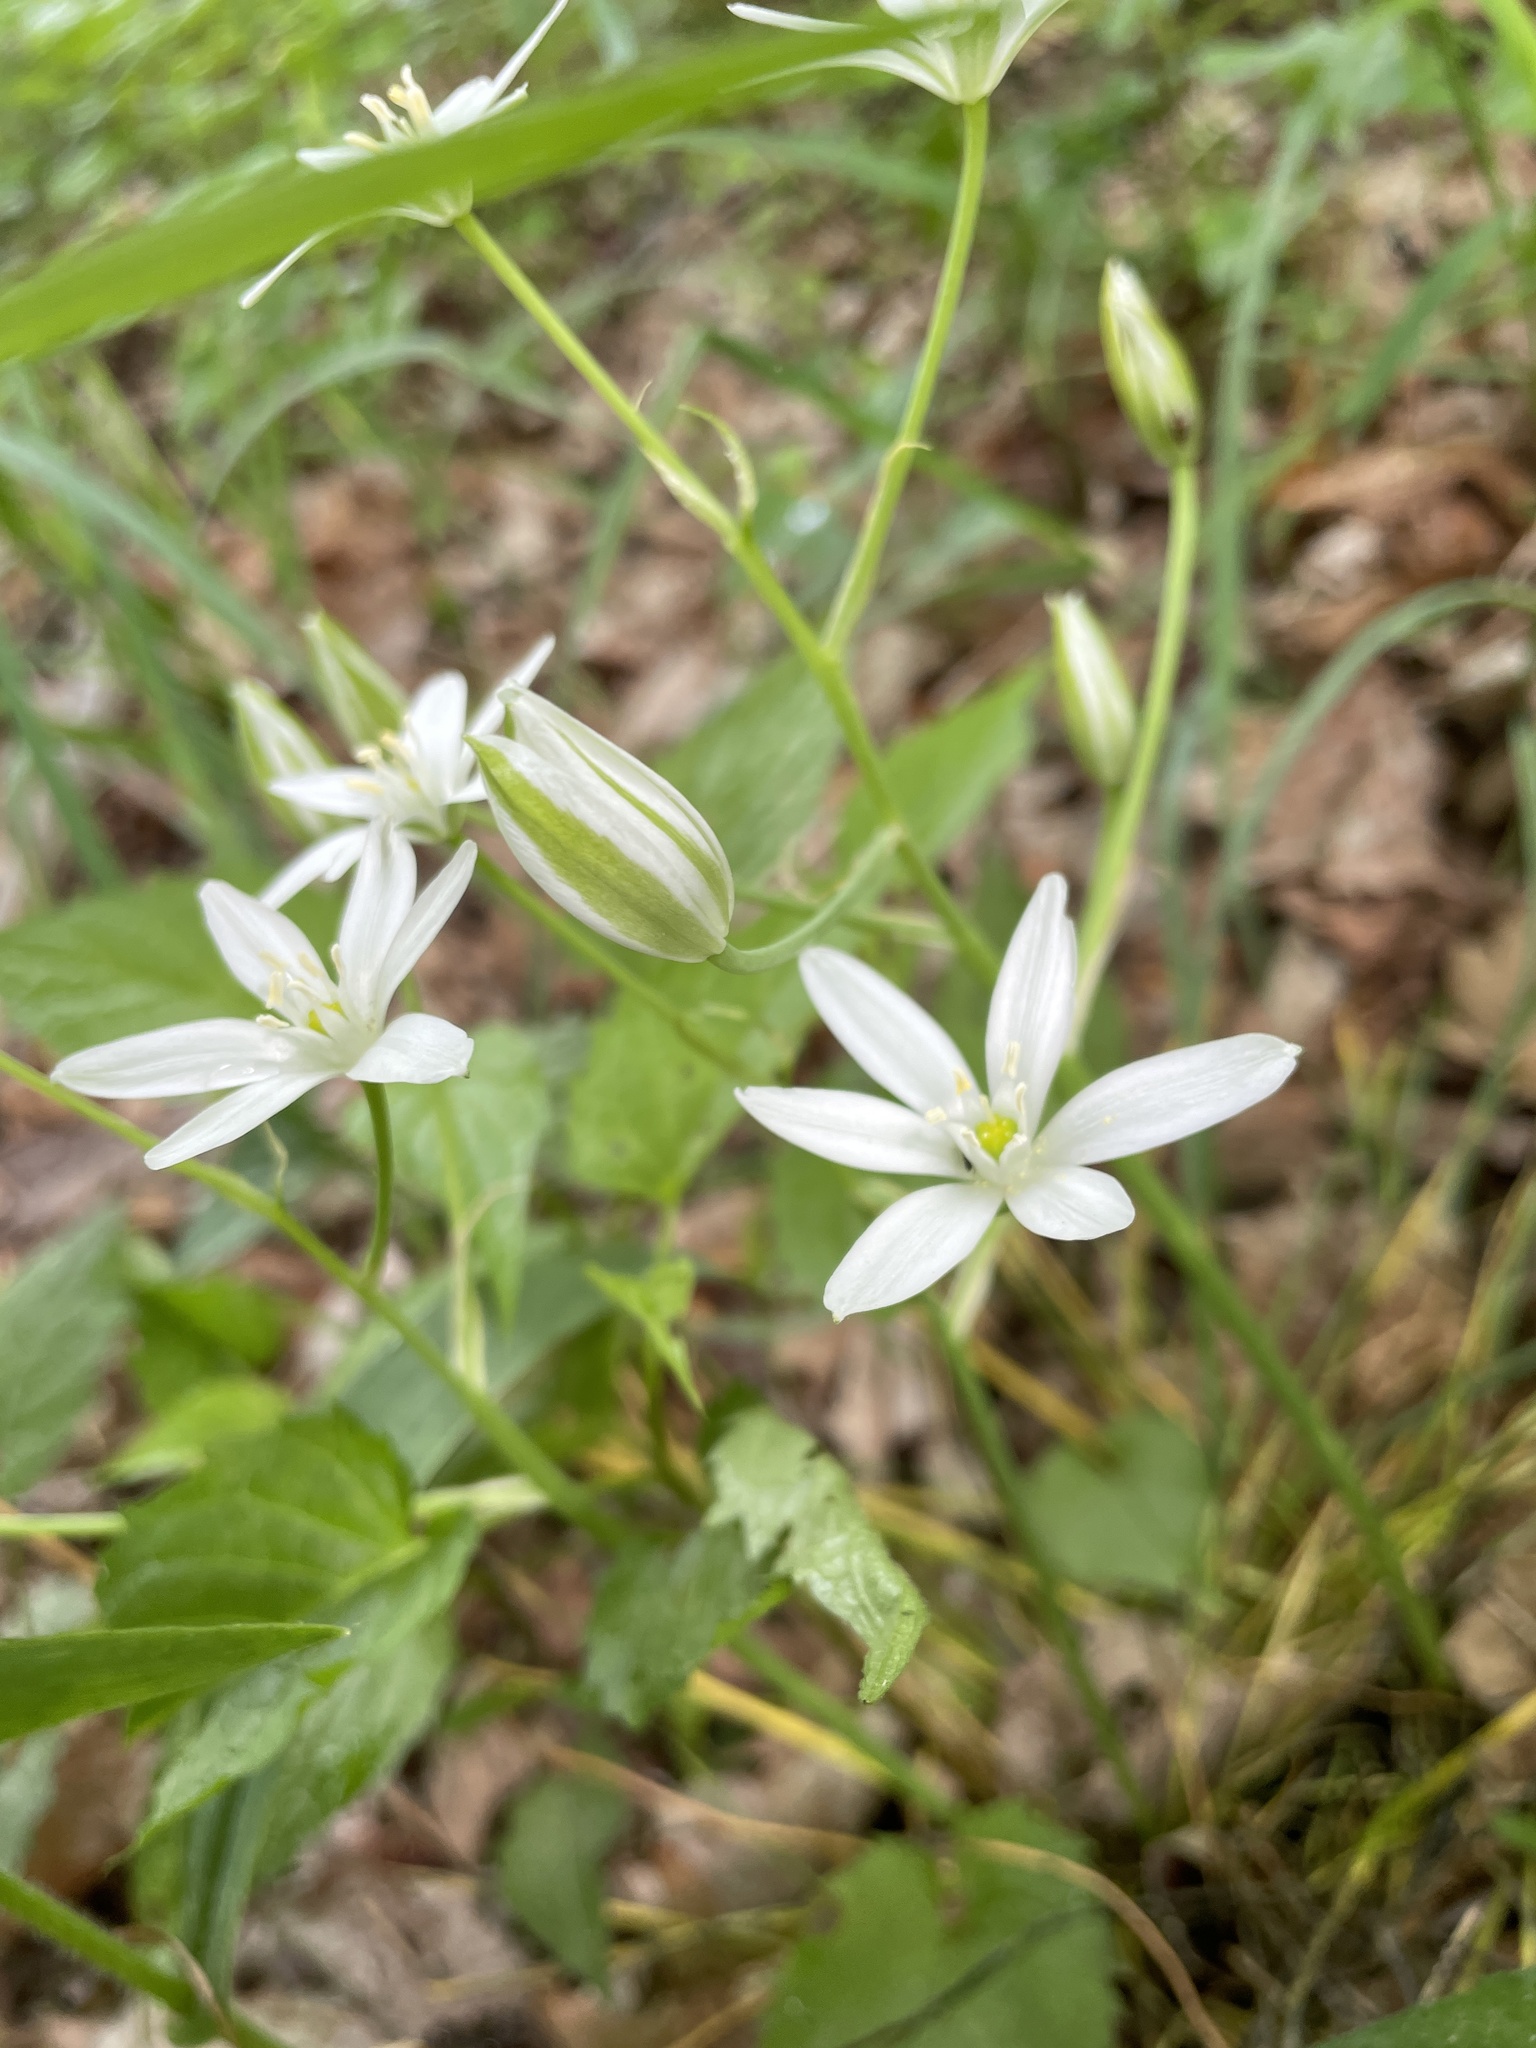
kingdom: Plantae
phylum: Tracheophyta
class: Liliopsida
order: Asparagales
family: Asparagaceae
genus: Ornithogalum
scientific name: Ornithogalum umbellatum
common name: Garden star-of-bethlehem
